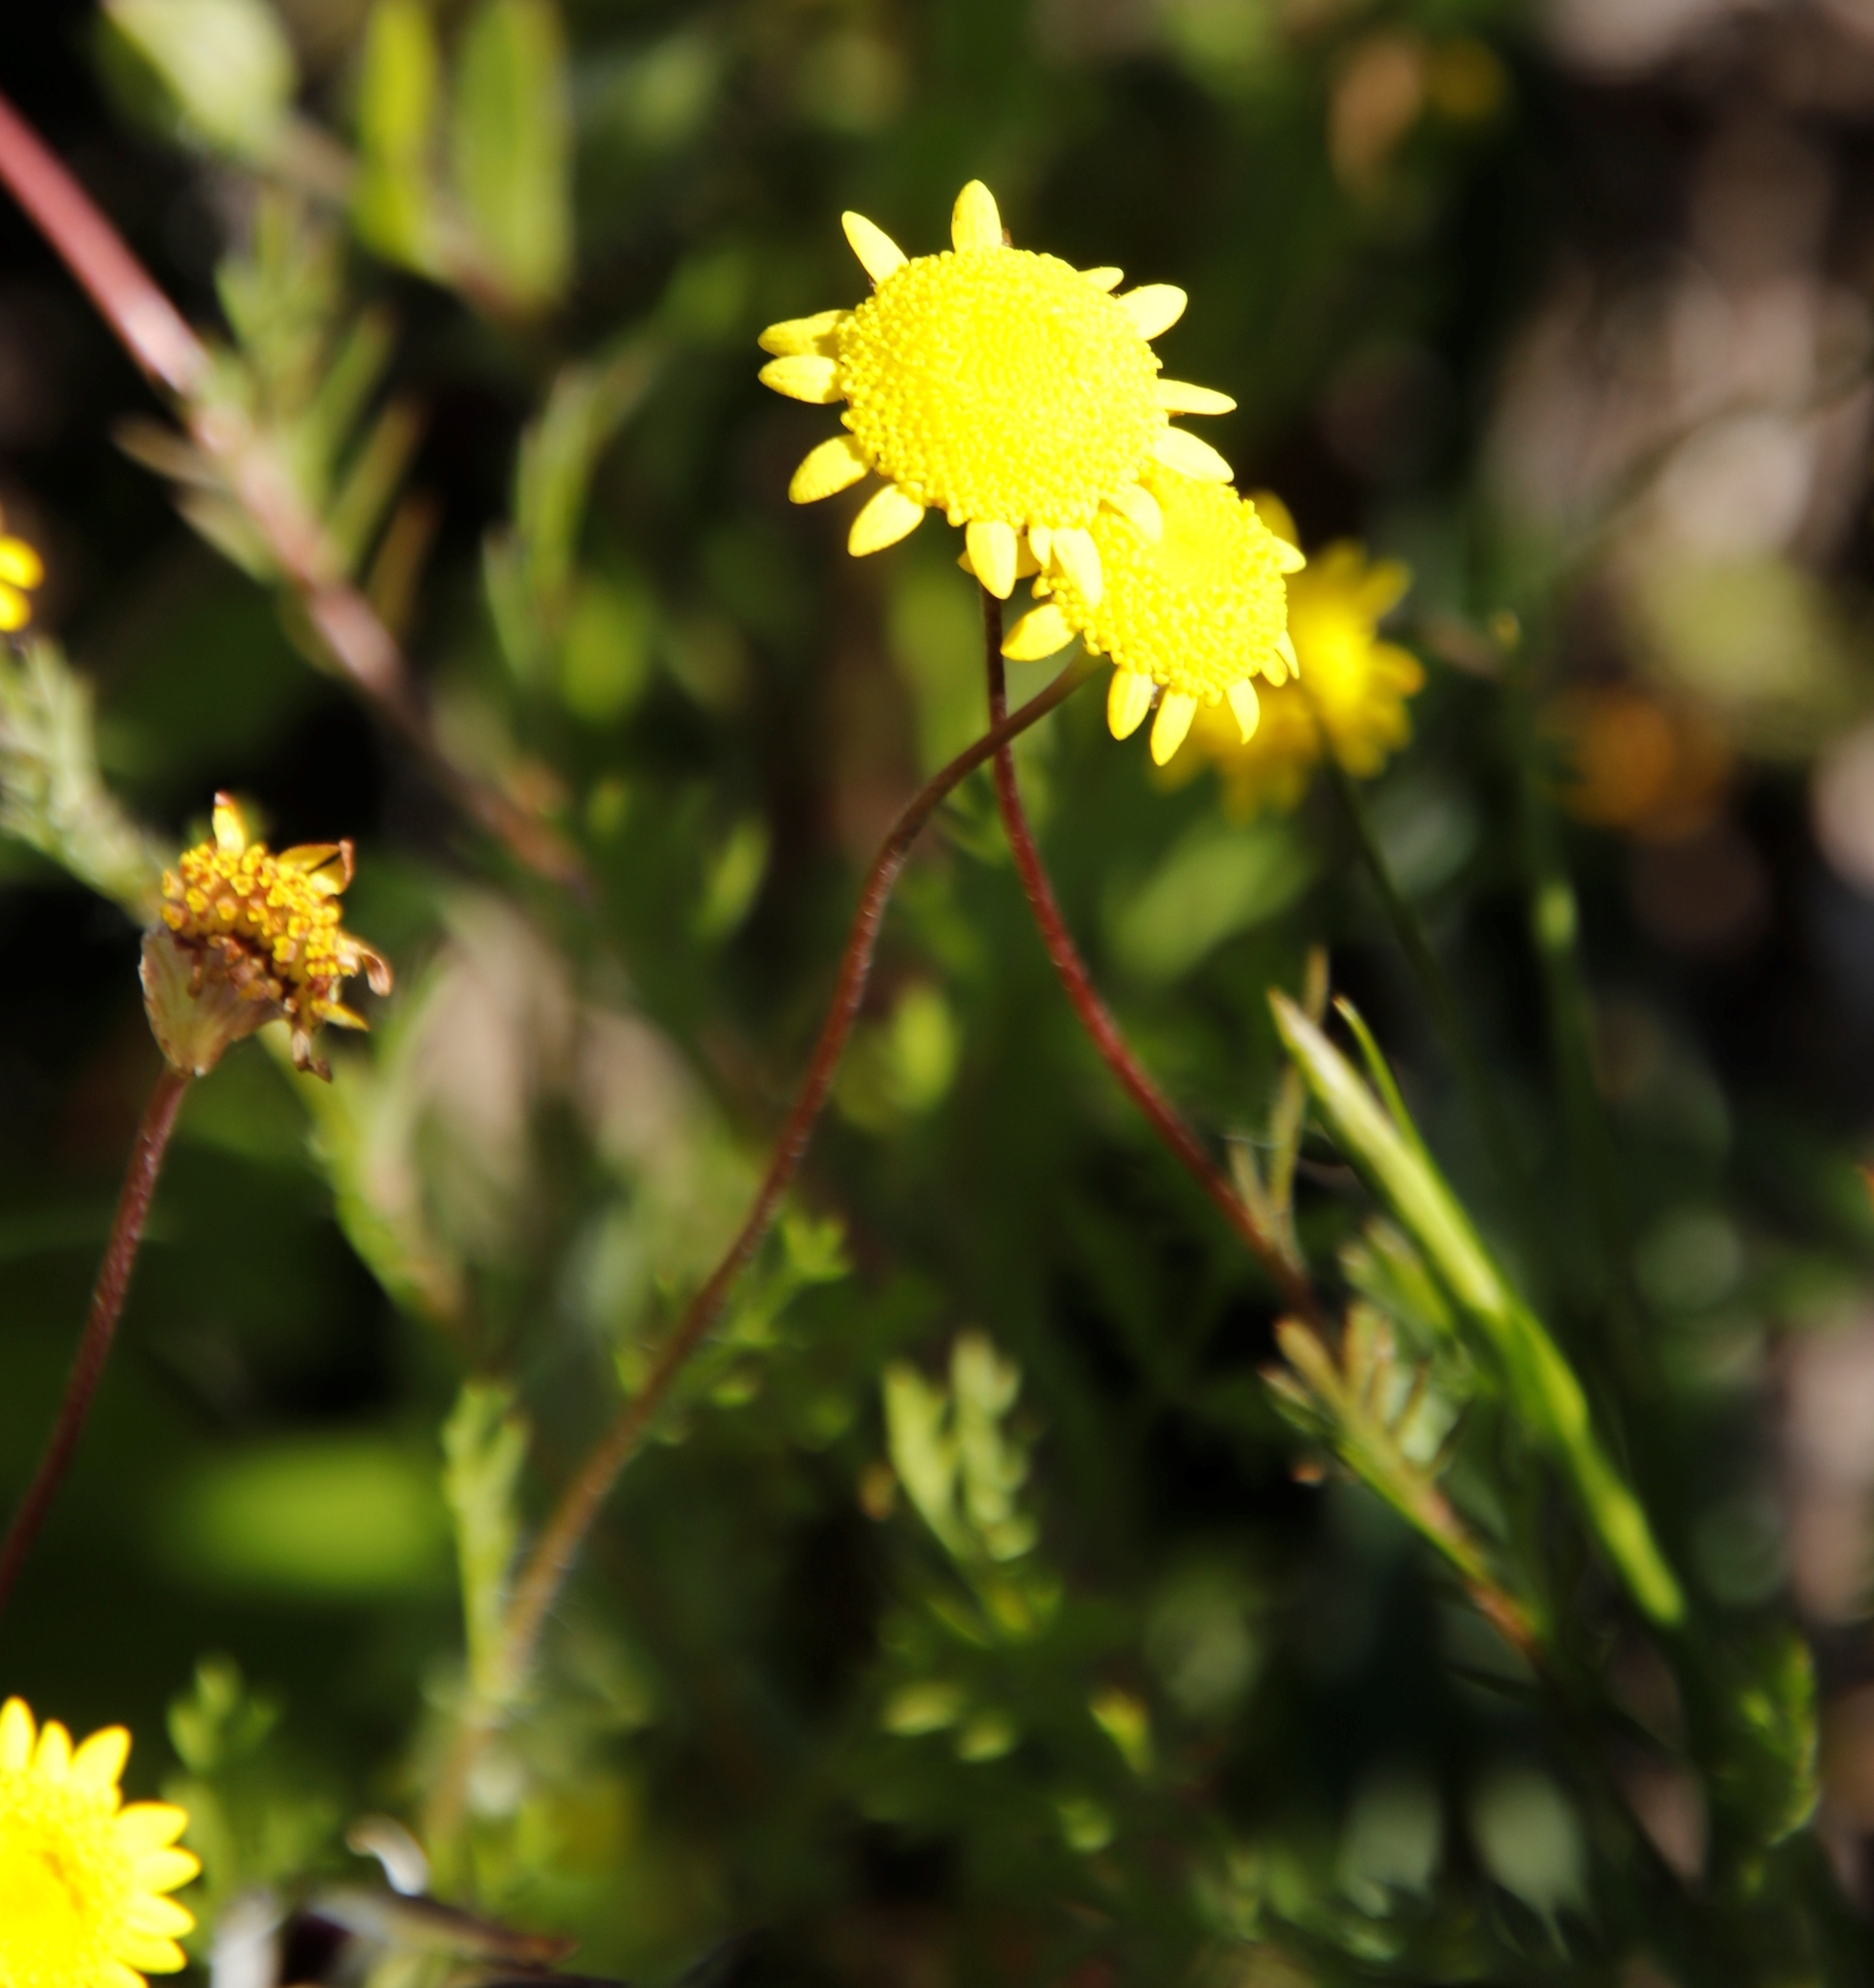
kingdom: Plantae
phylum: Tracheophyta
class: Magnoliopsida
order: Asterales
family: Asteraceae
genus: Cotula
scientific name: Cotula pruinosa
